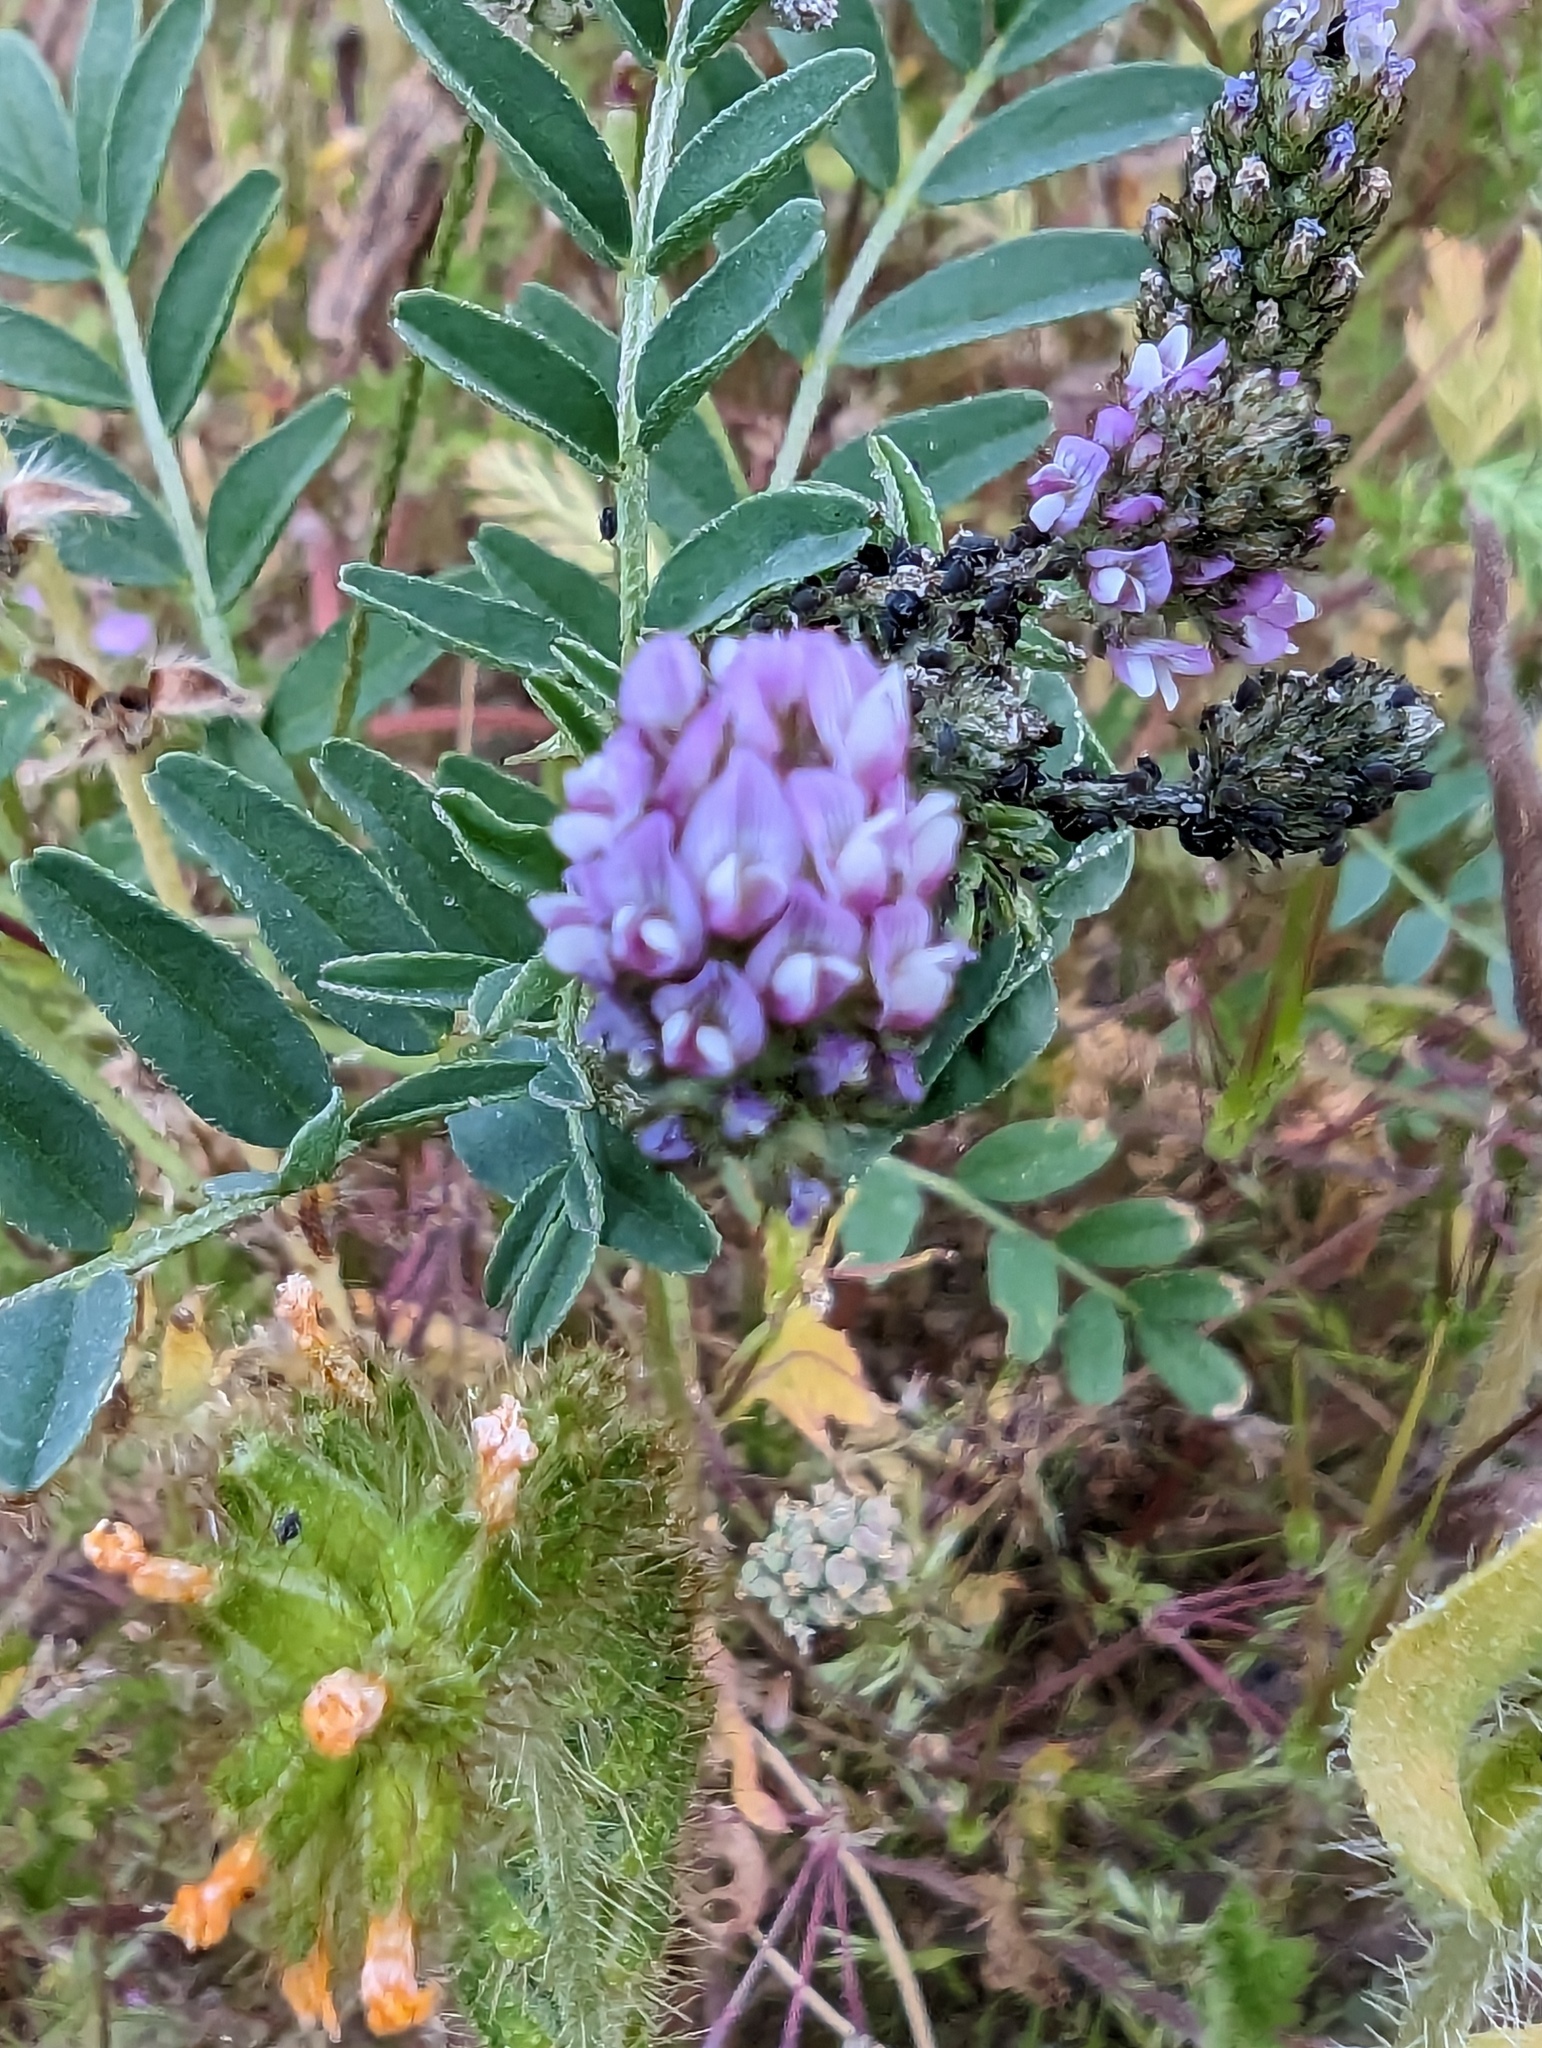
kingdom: Plantae
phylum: Tracheophyta
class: Magnoliopsida
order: Fabales
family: Fabaceae
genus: Astragalus
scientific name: Astragalus didymocarpus
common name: Dwarf white milkvetch
